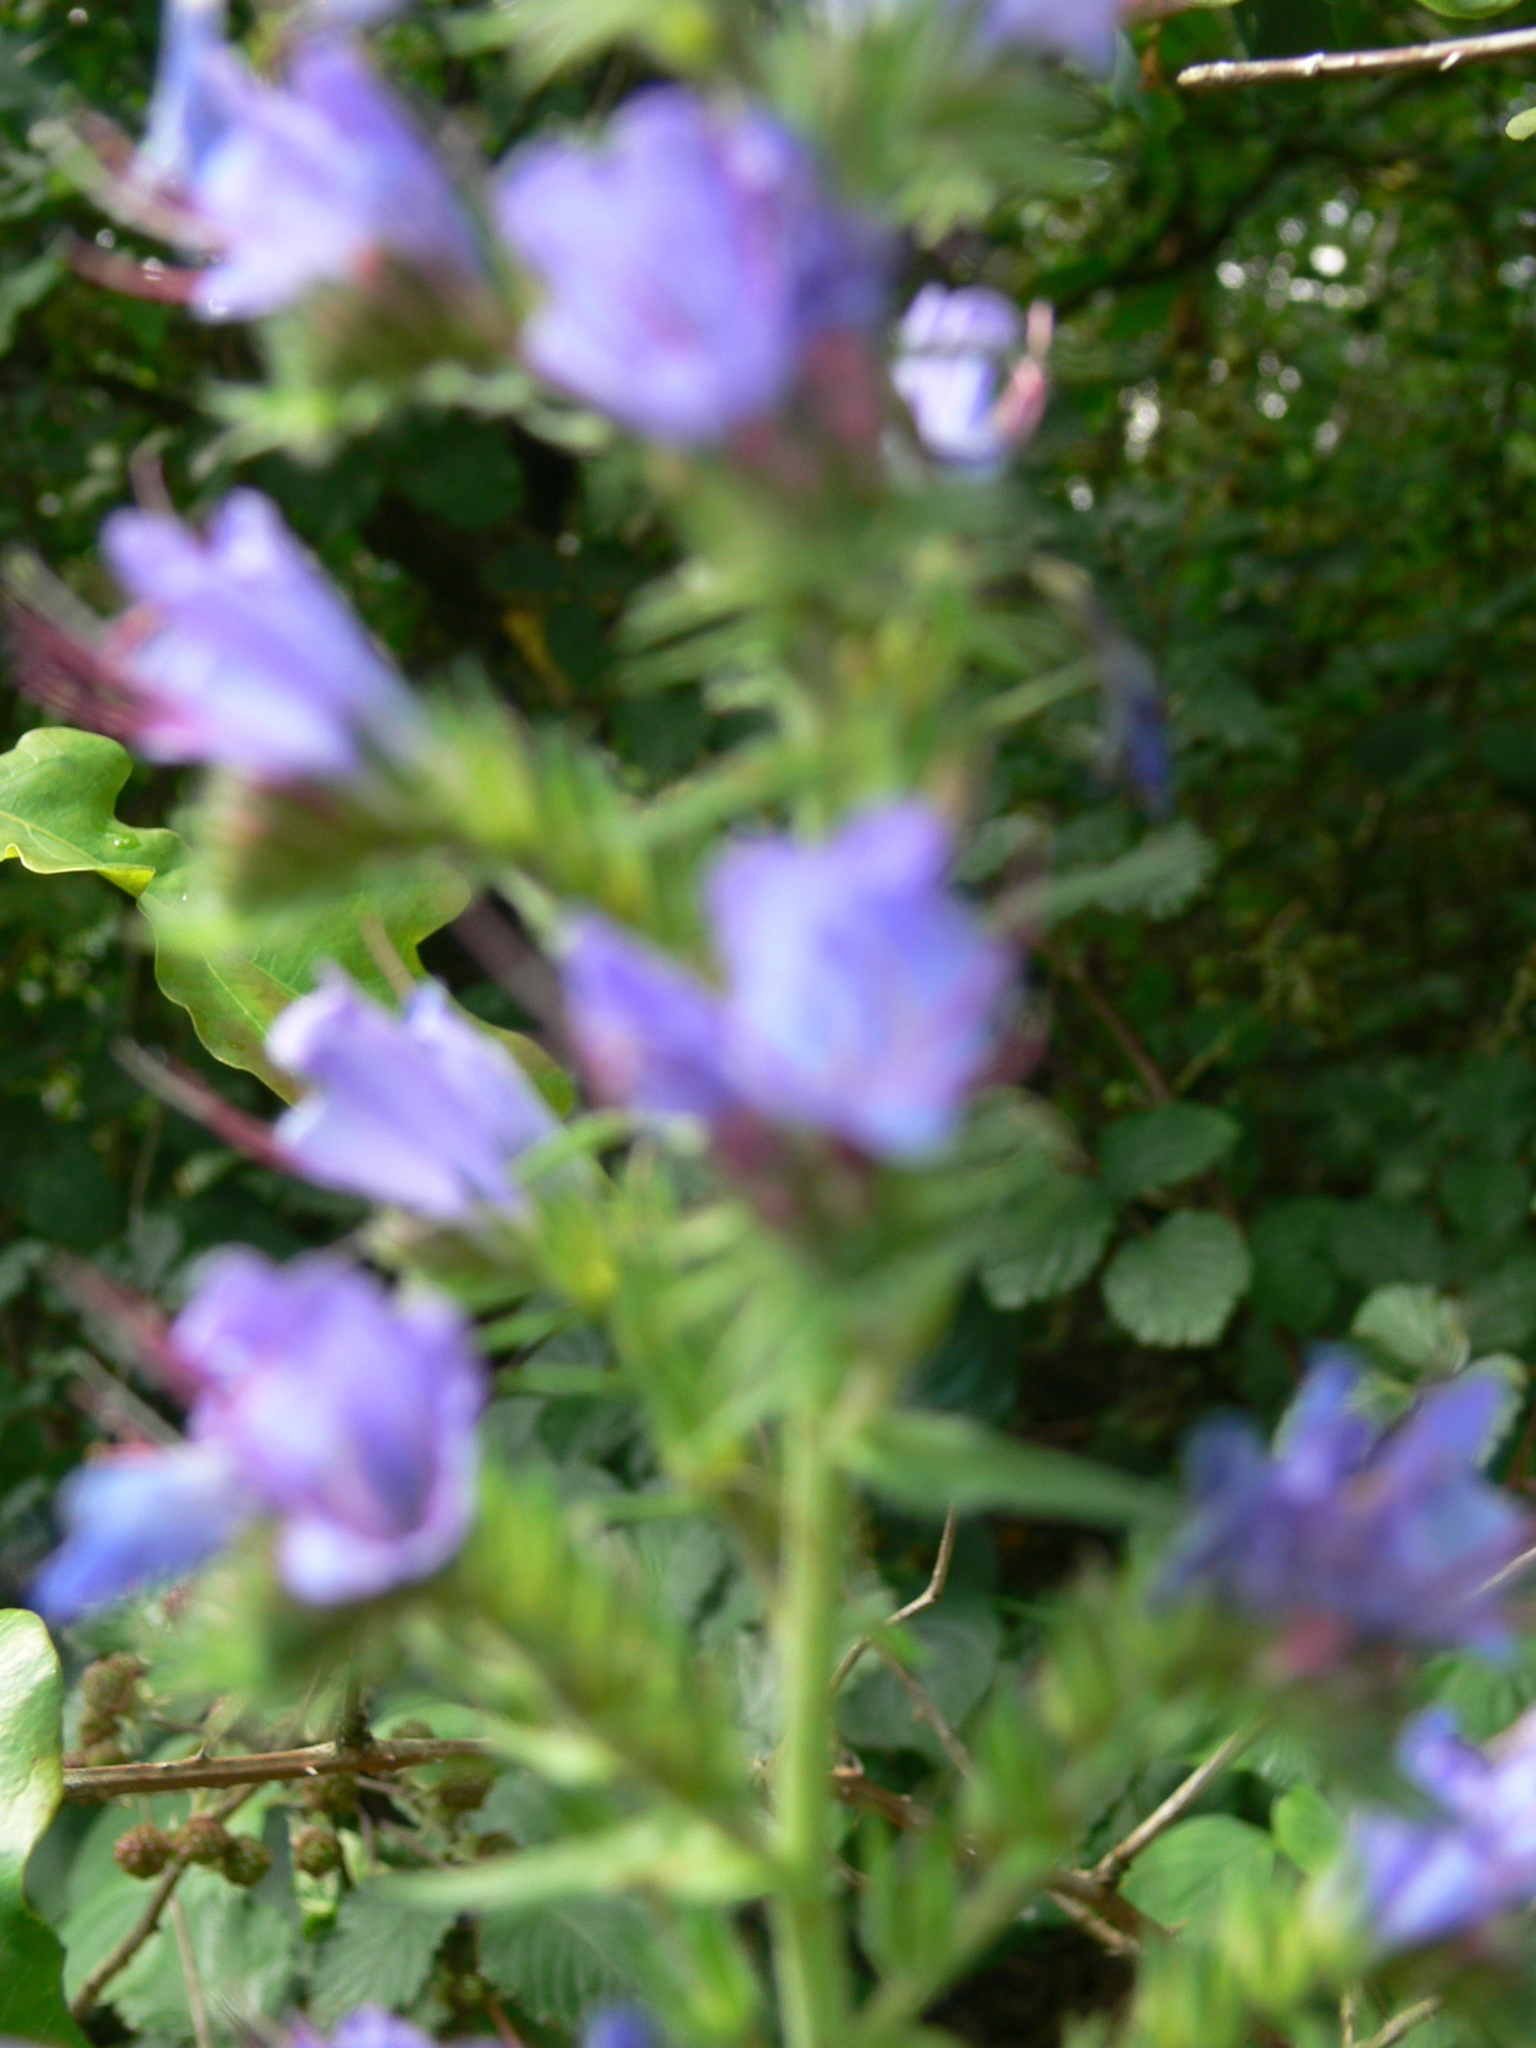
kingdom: Plantae
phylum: Tracheophyta
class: Magnoliopsida
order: Boraginales
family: Boraginaceae
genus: Echium
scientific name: Echium vulgare
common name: Common viper's bugloss
